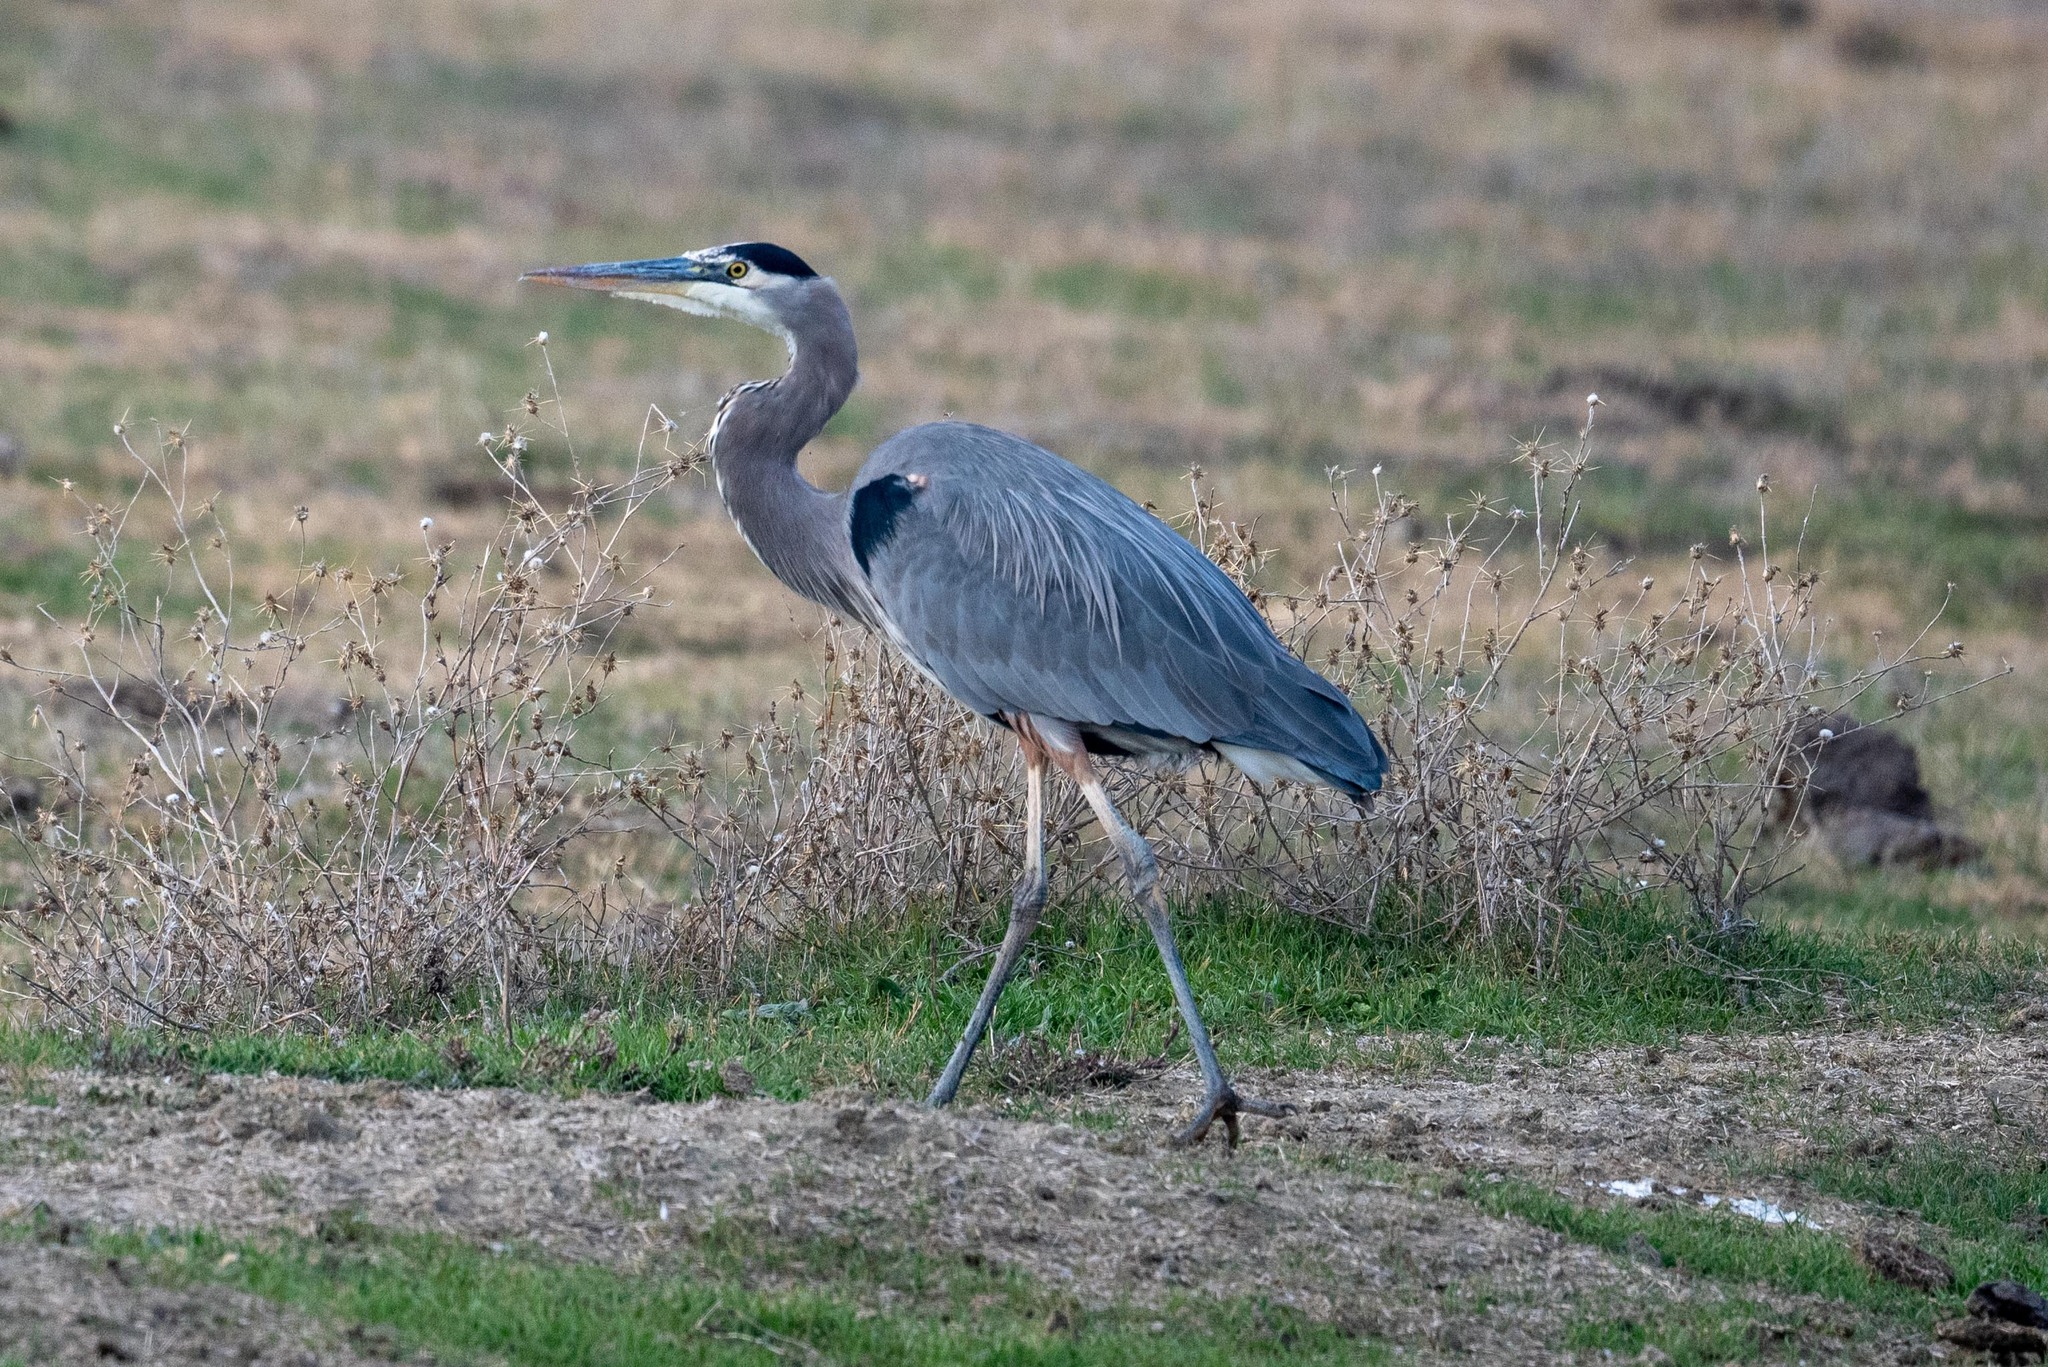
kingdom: Animalia
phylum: Chordata
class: Aves
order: Pelecaniformes
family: Ardeidae
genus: Ardea
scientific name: Ardea herodias
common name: Great blue heron
